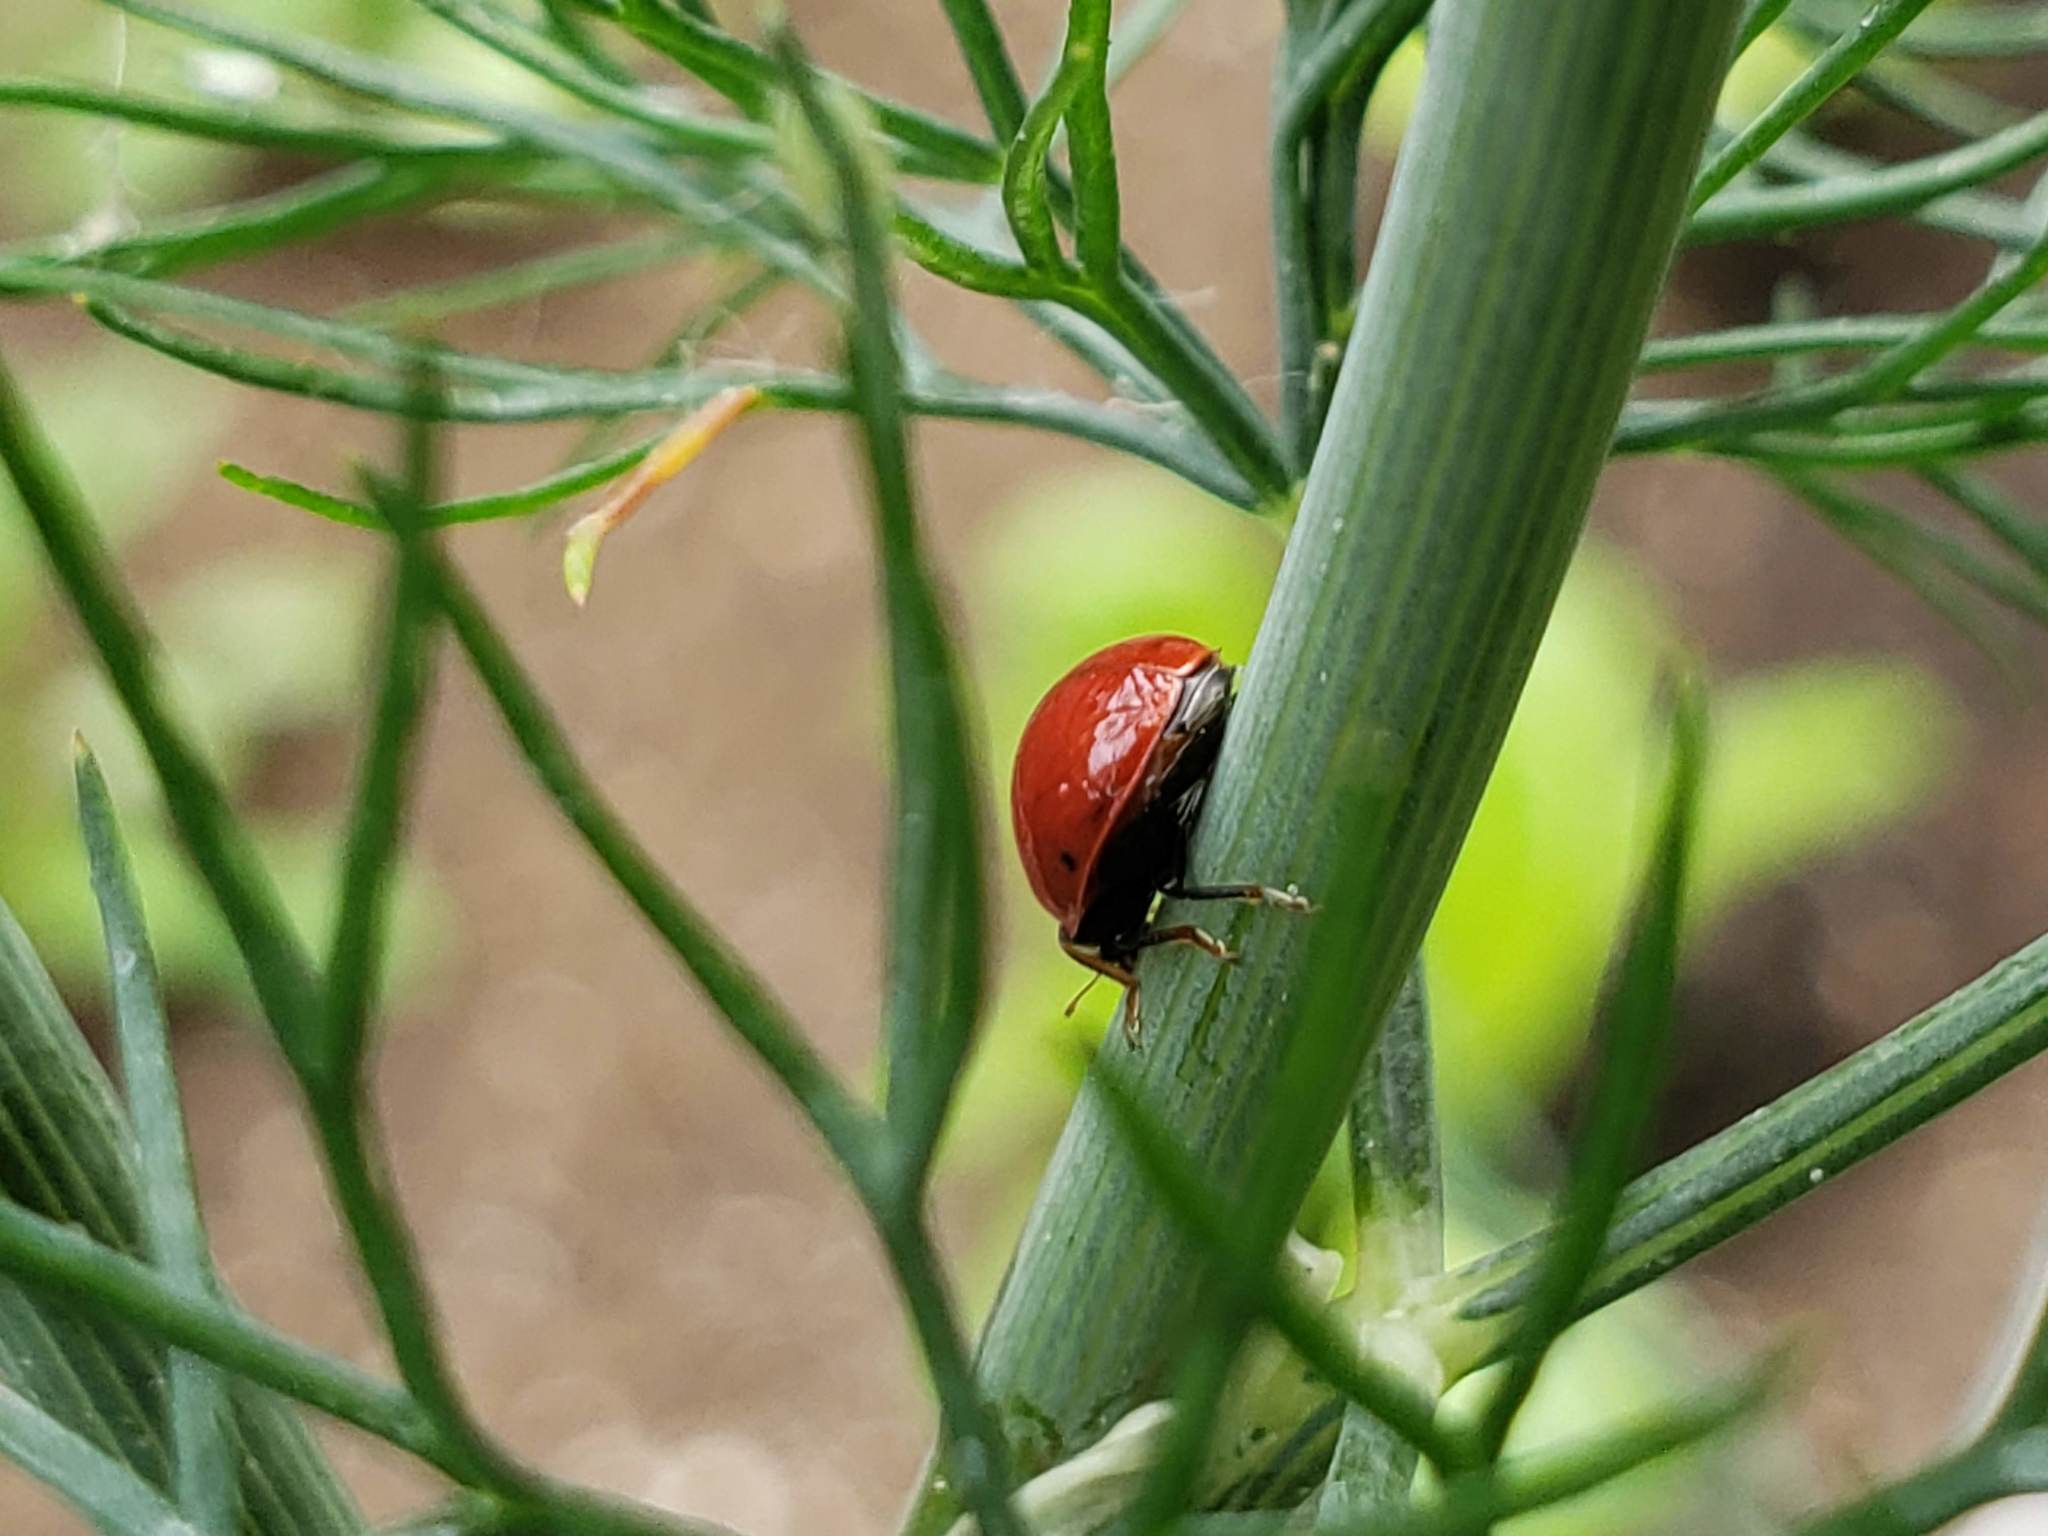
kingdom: Animalia
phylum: Arthropoda
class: Insecta
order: Coleoptera
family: Coccinellidae
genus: Cycloneda
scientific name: Cycloneda polita
